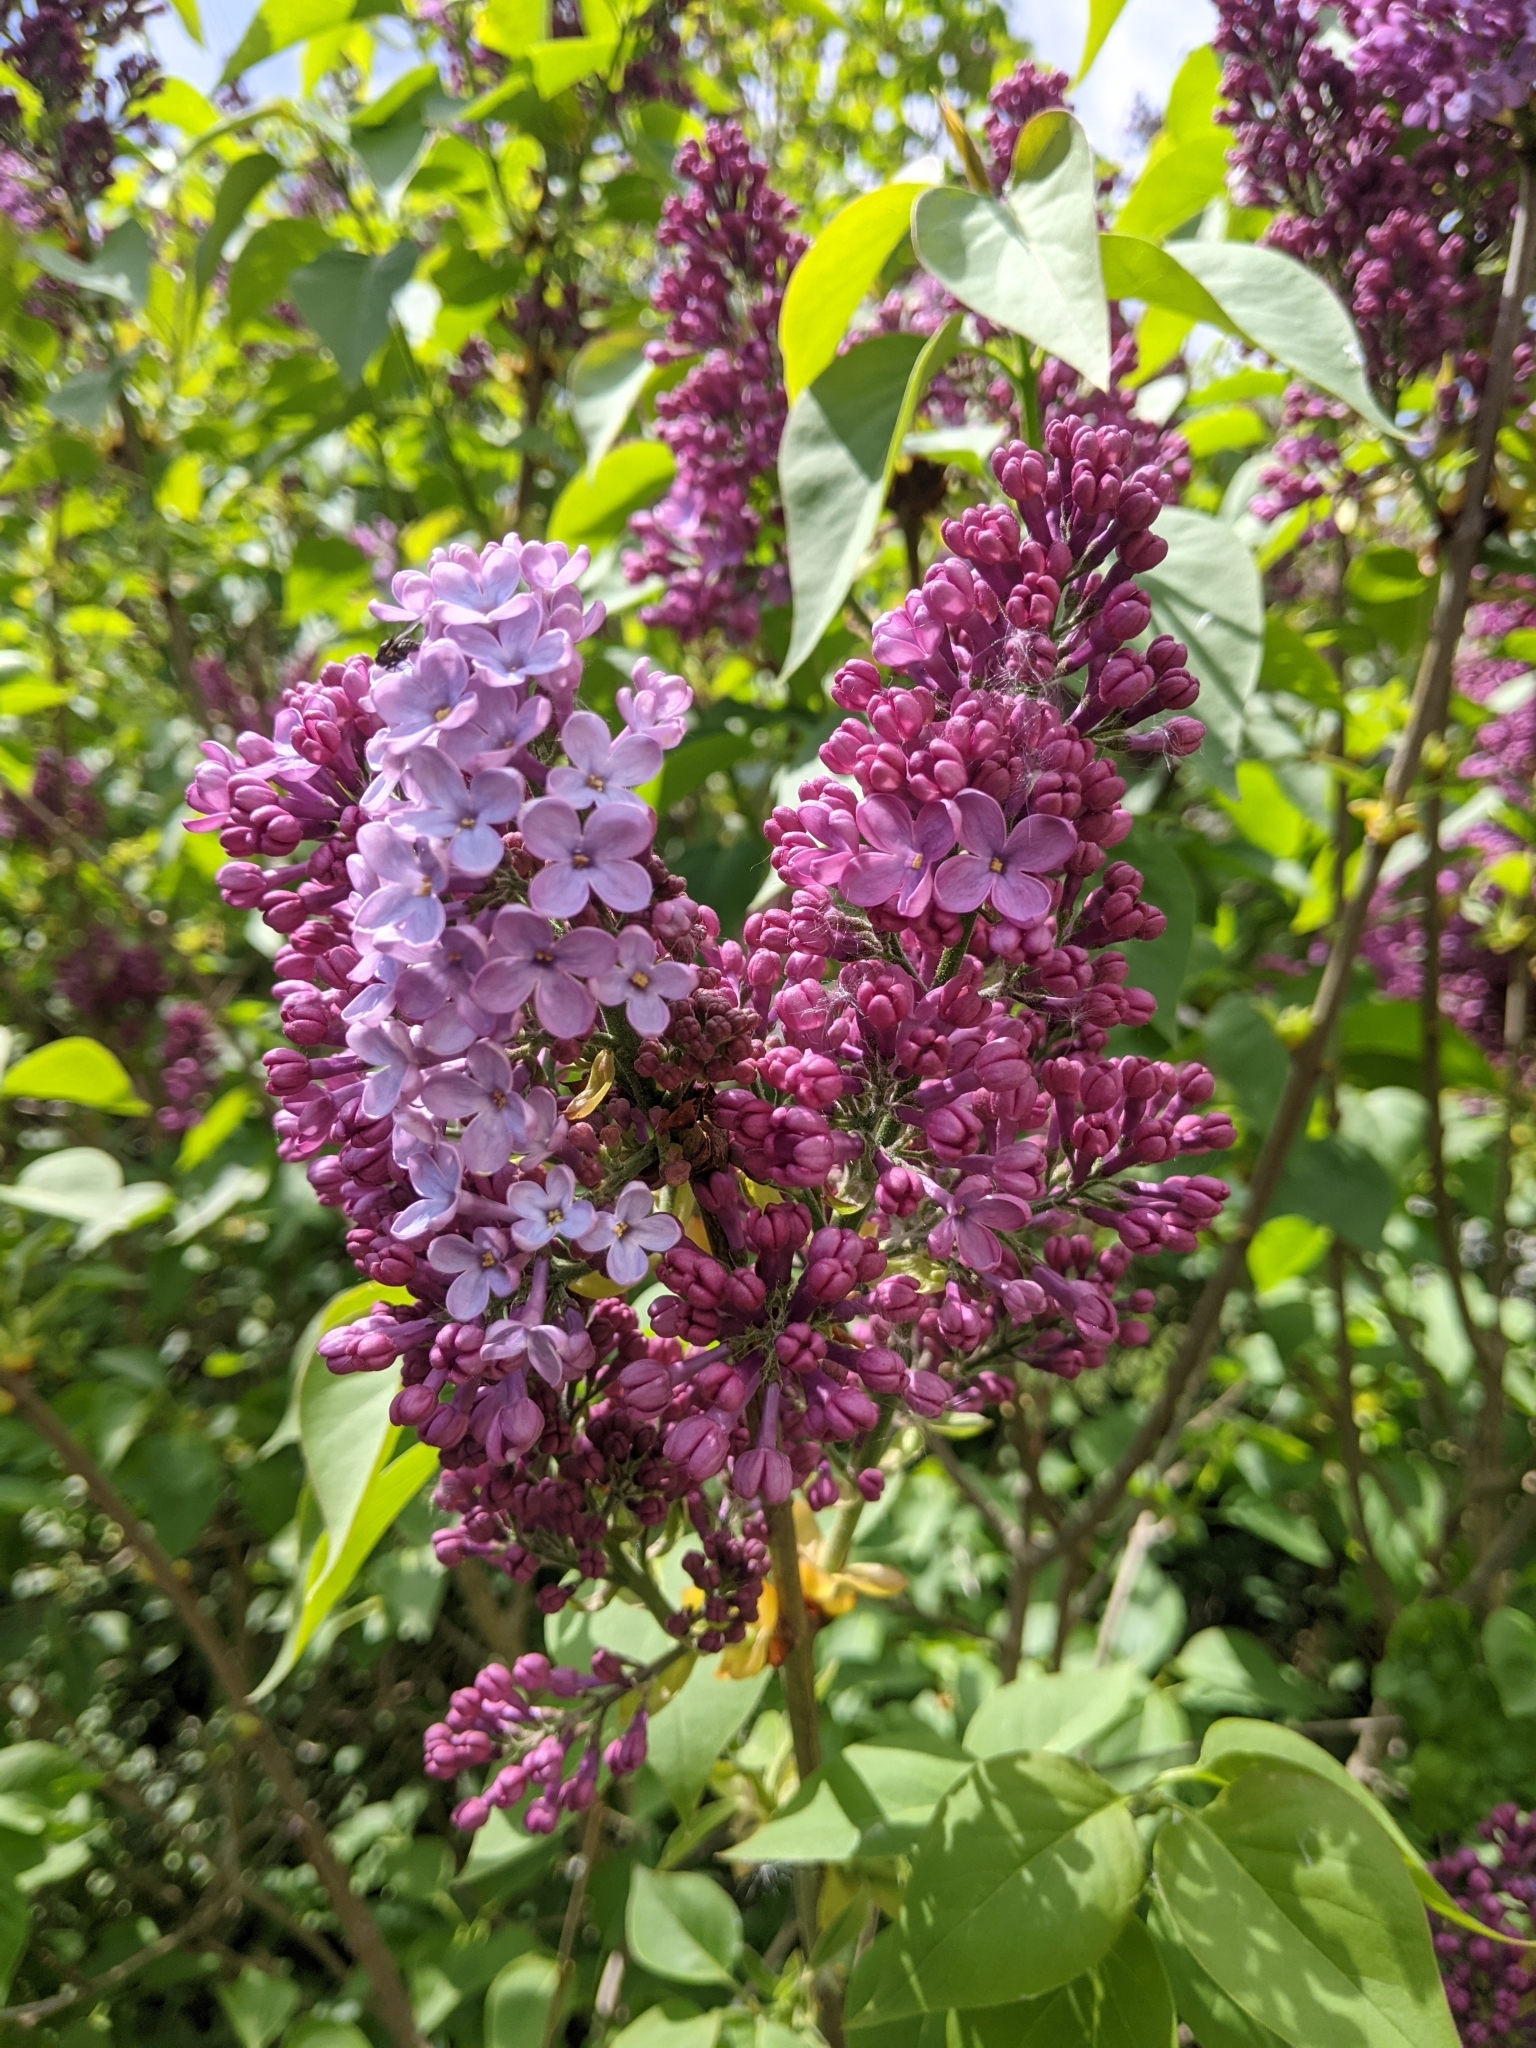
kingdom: Plantae
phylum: Tracheophyta
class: Magnoliopsida
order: Lamiales
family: Oleaceae
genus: Syringa
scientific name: Syringa vulgaris
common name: Common lilac
